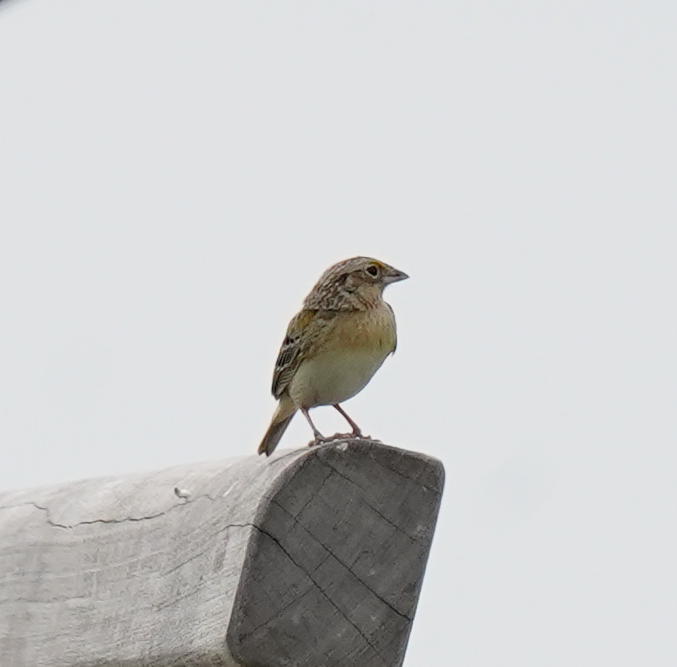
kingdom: Animalia
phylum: Chordata
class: Aves
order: Passeriformes
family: Passerellidae
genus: Ammodramus
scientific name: Ammodramus savannarum
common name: Grasshopper sparrow
